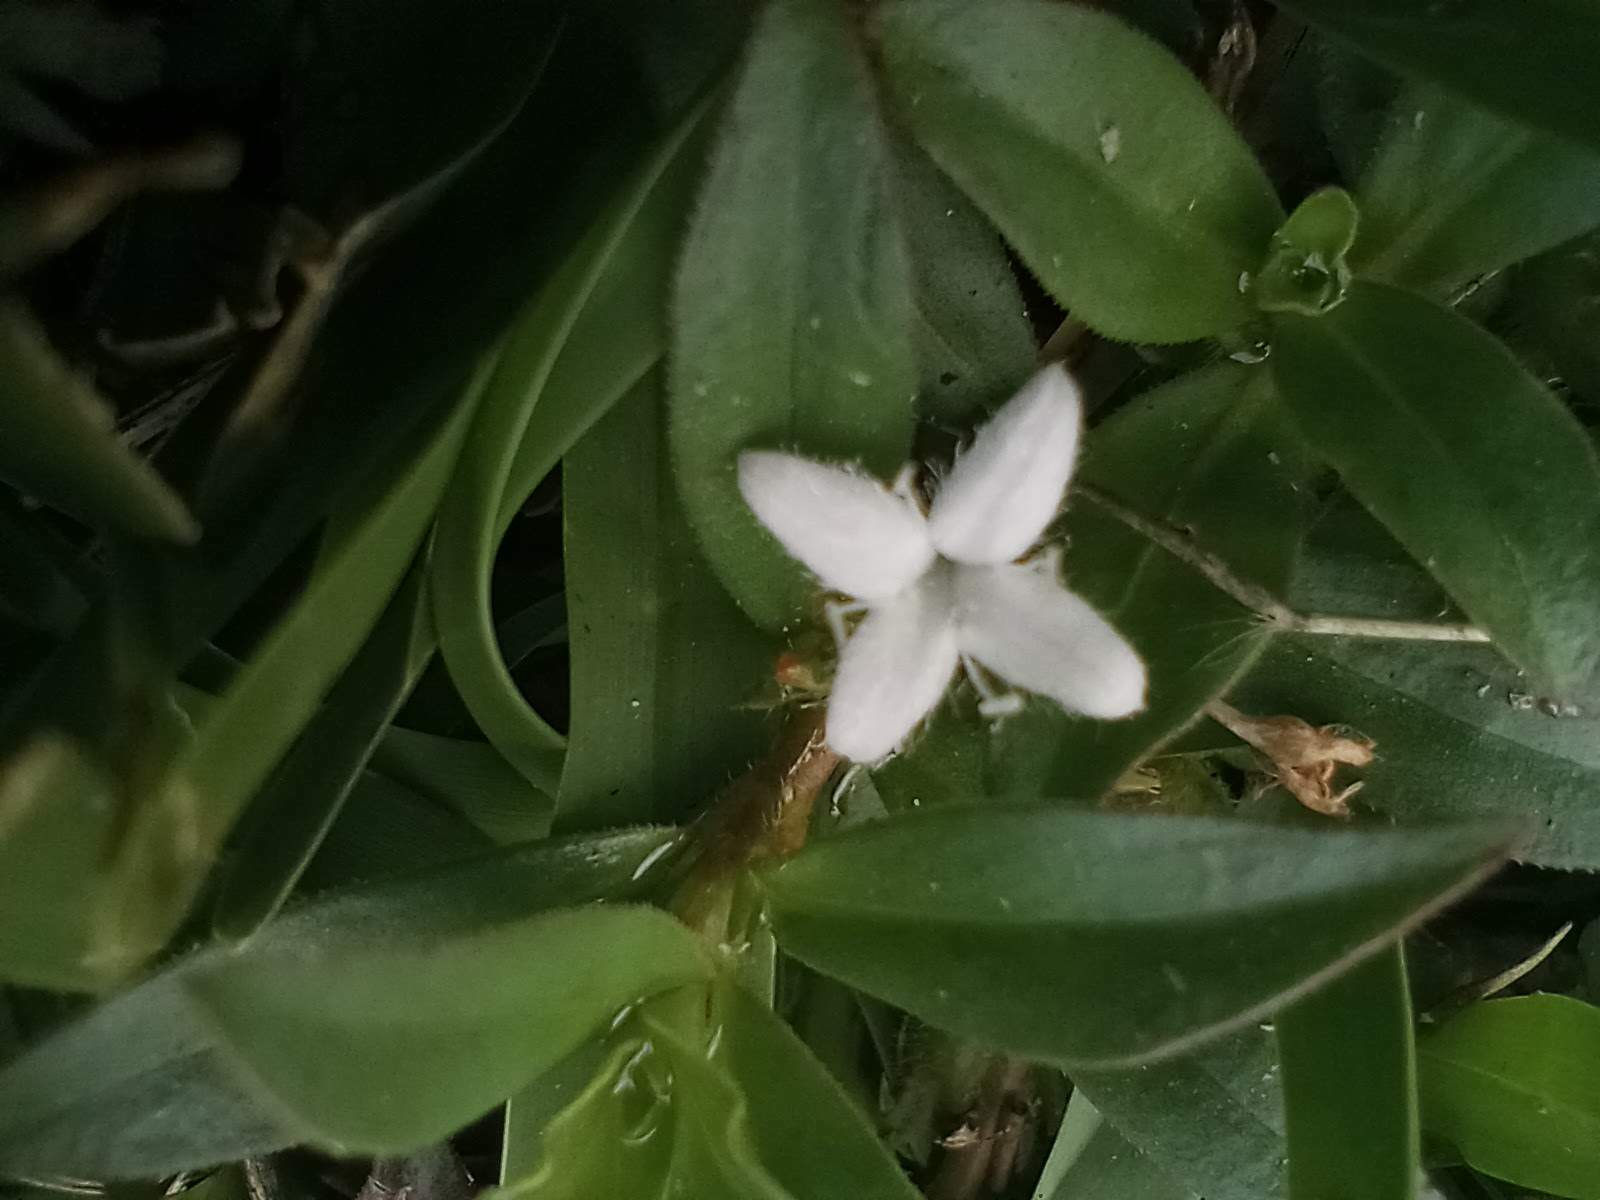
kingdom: Plantae
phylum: Tracheophyta
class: Magnoliopsida
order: Gentianales
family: Rubiaceae
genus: Diodia
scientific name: Diodia virginiana
